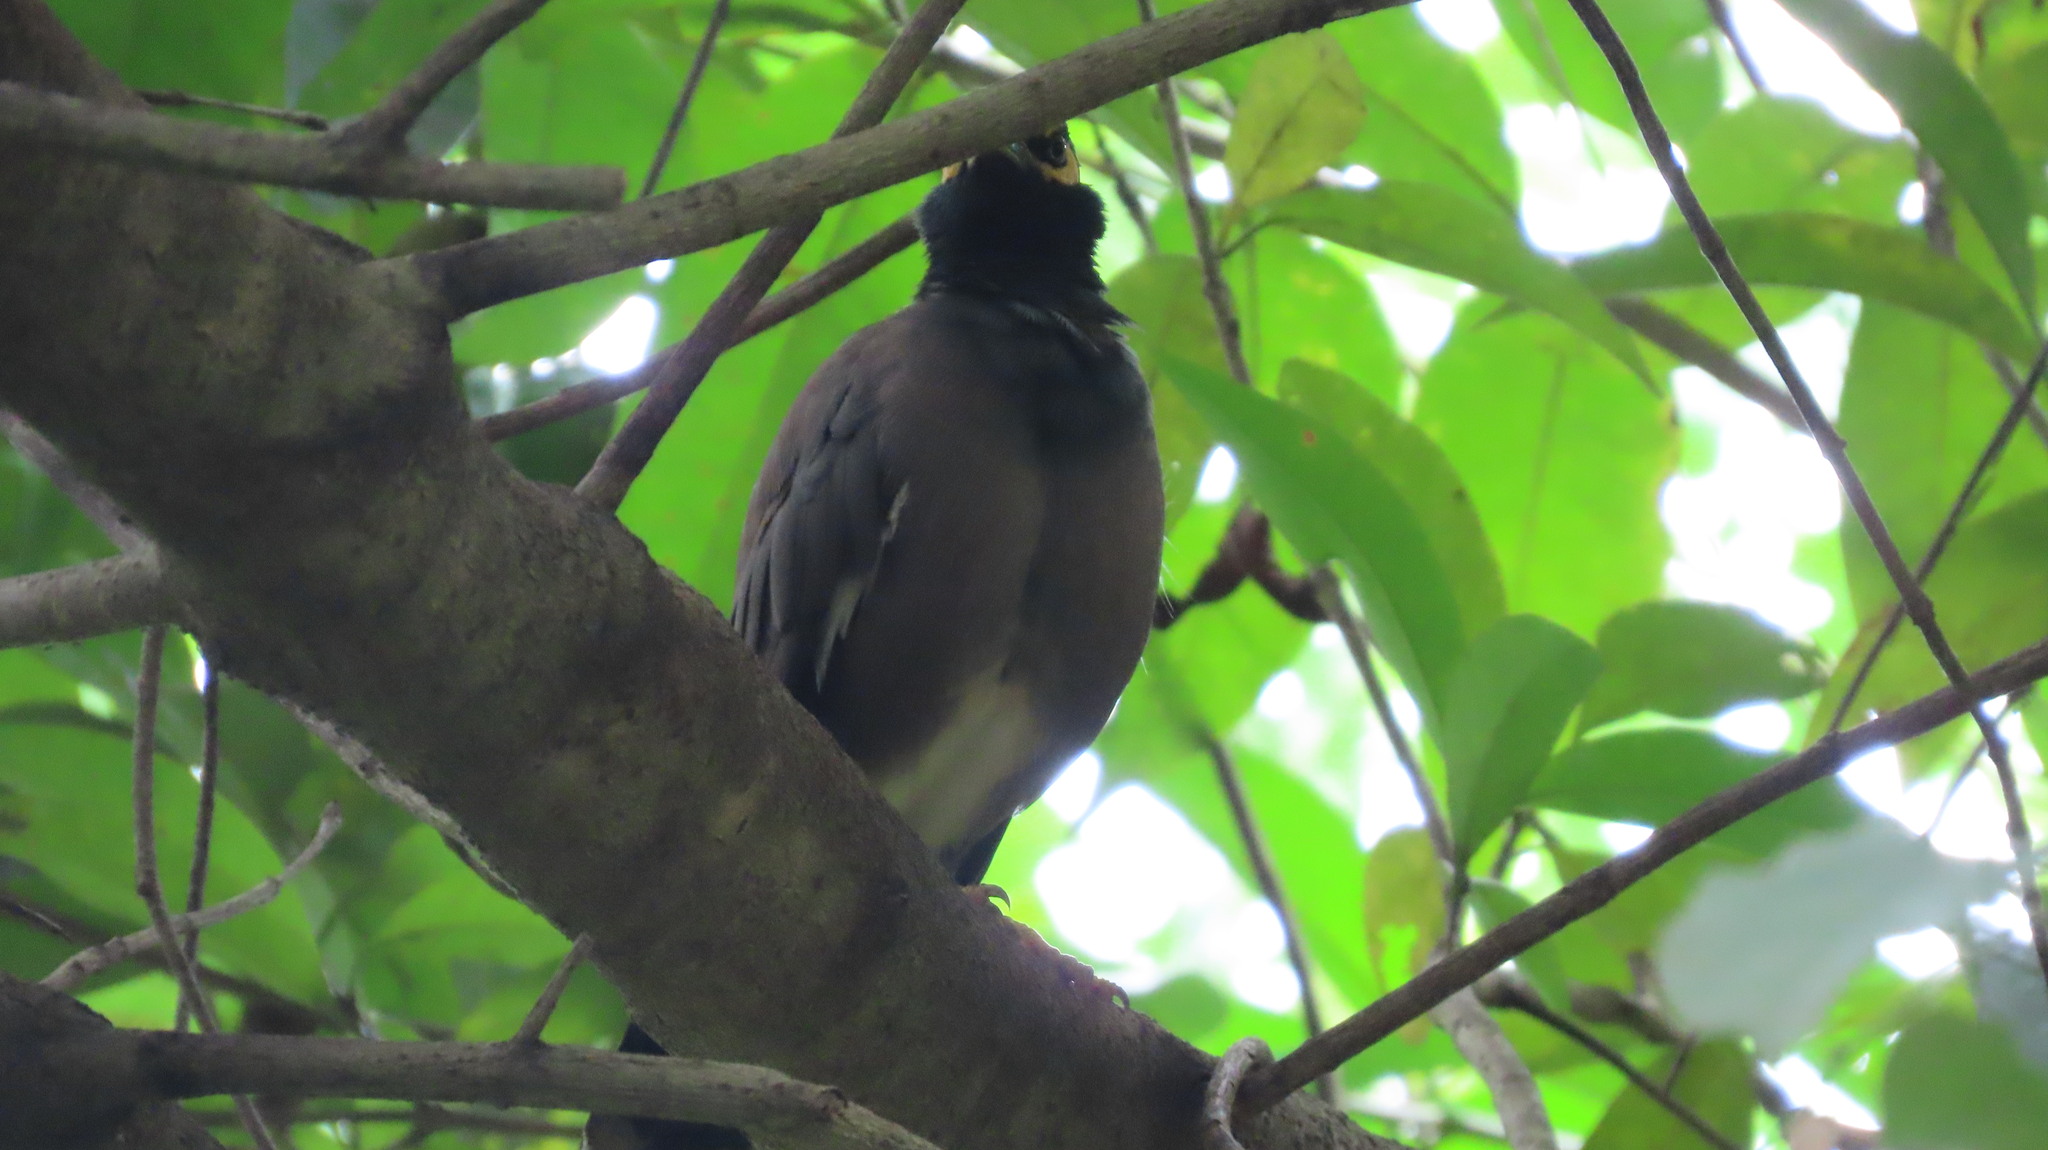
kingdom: Animalia
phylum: Chordata
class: Aves
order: Passeriformes
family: Sturnidae
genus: Acridotheres
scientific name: Acridotheres tristis
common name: Common myna
